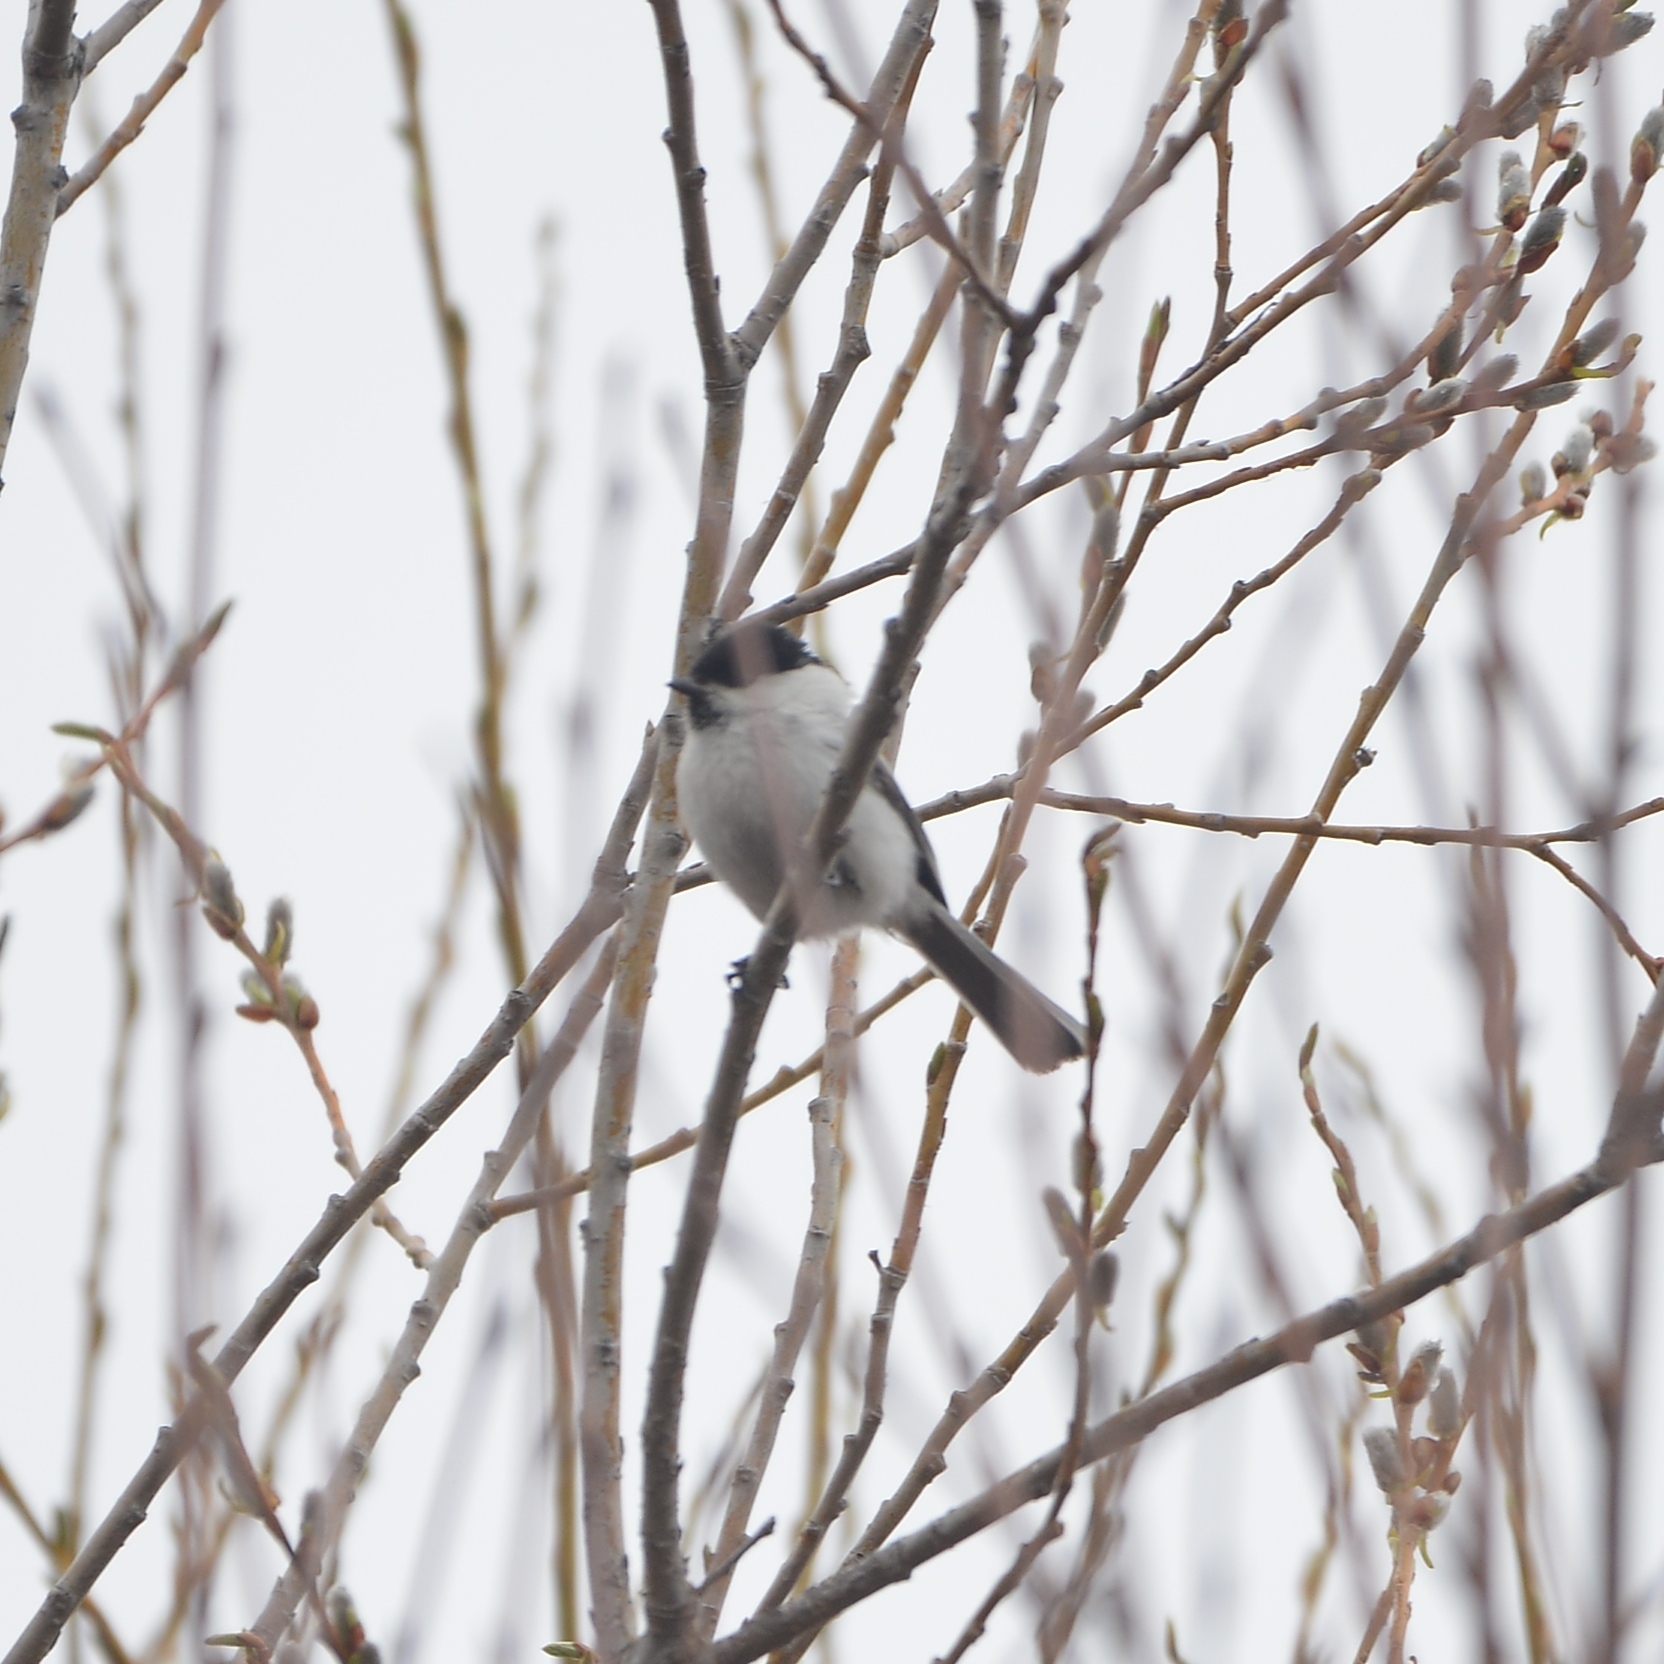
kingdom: Animalia
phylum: Chordata
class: Aves
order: Passeriformes
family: Paridae
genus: Poecile
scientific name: Poecile montanus
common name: Willow tit
